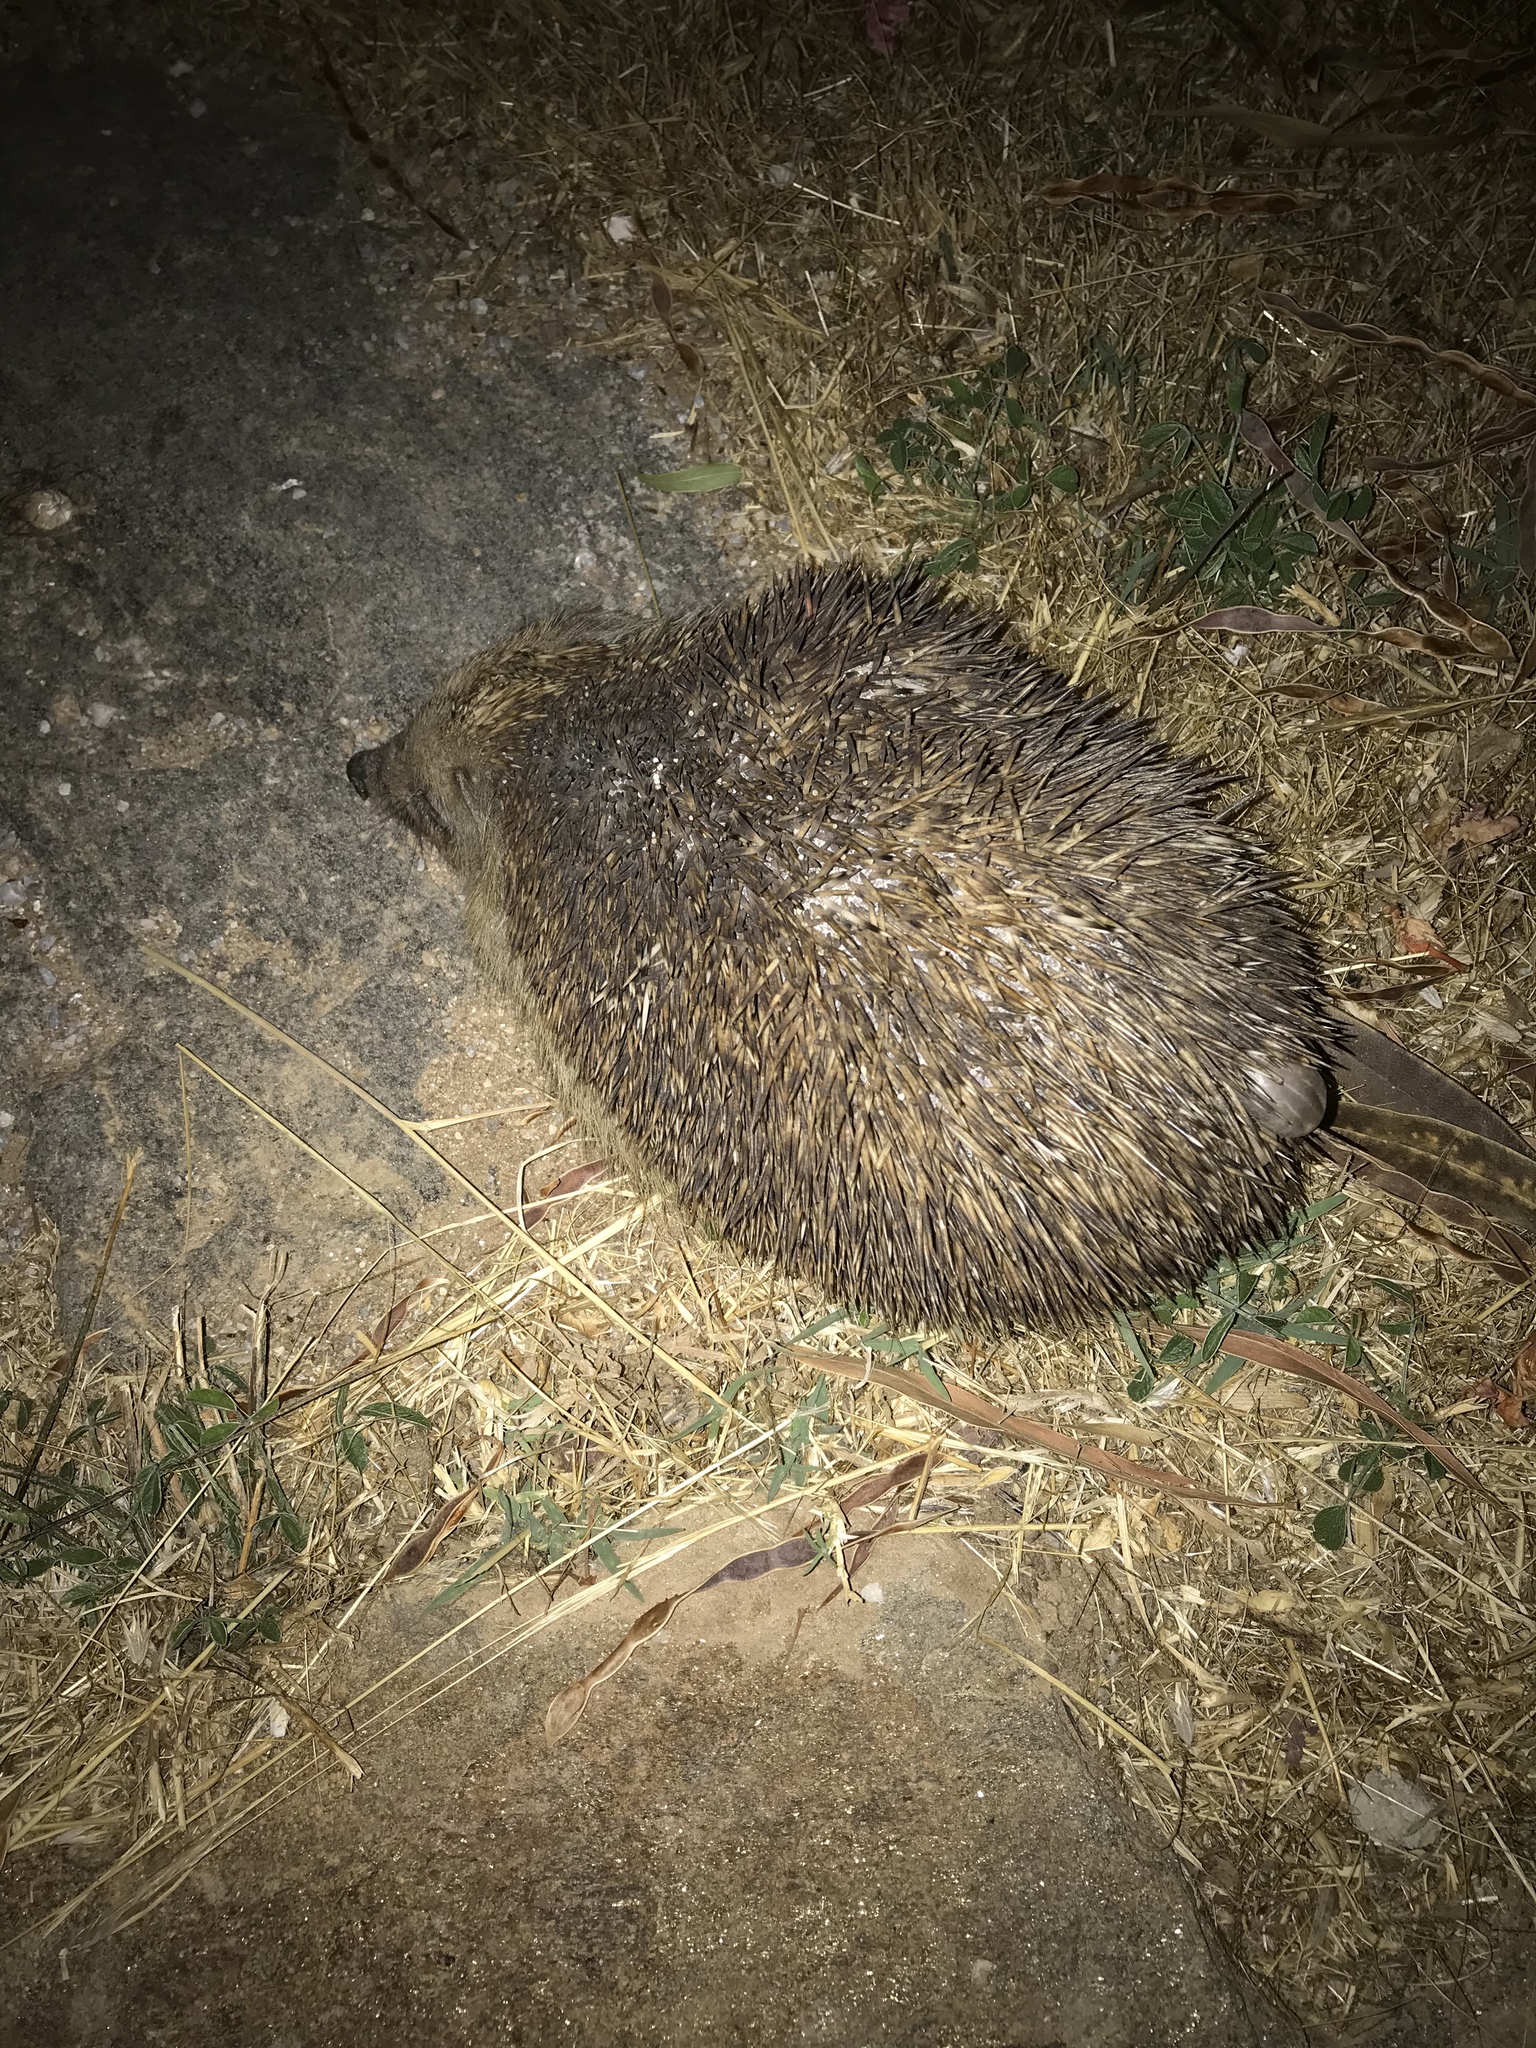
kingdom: Animalia
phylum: Chordata
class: Mammalia
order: Erinaceomorpha
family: Erinaceidae
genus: Erinaceus
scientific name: Erinaceus roumanicus
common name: Northern white-breasted hedgehog
